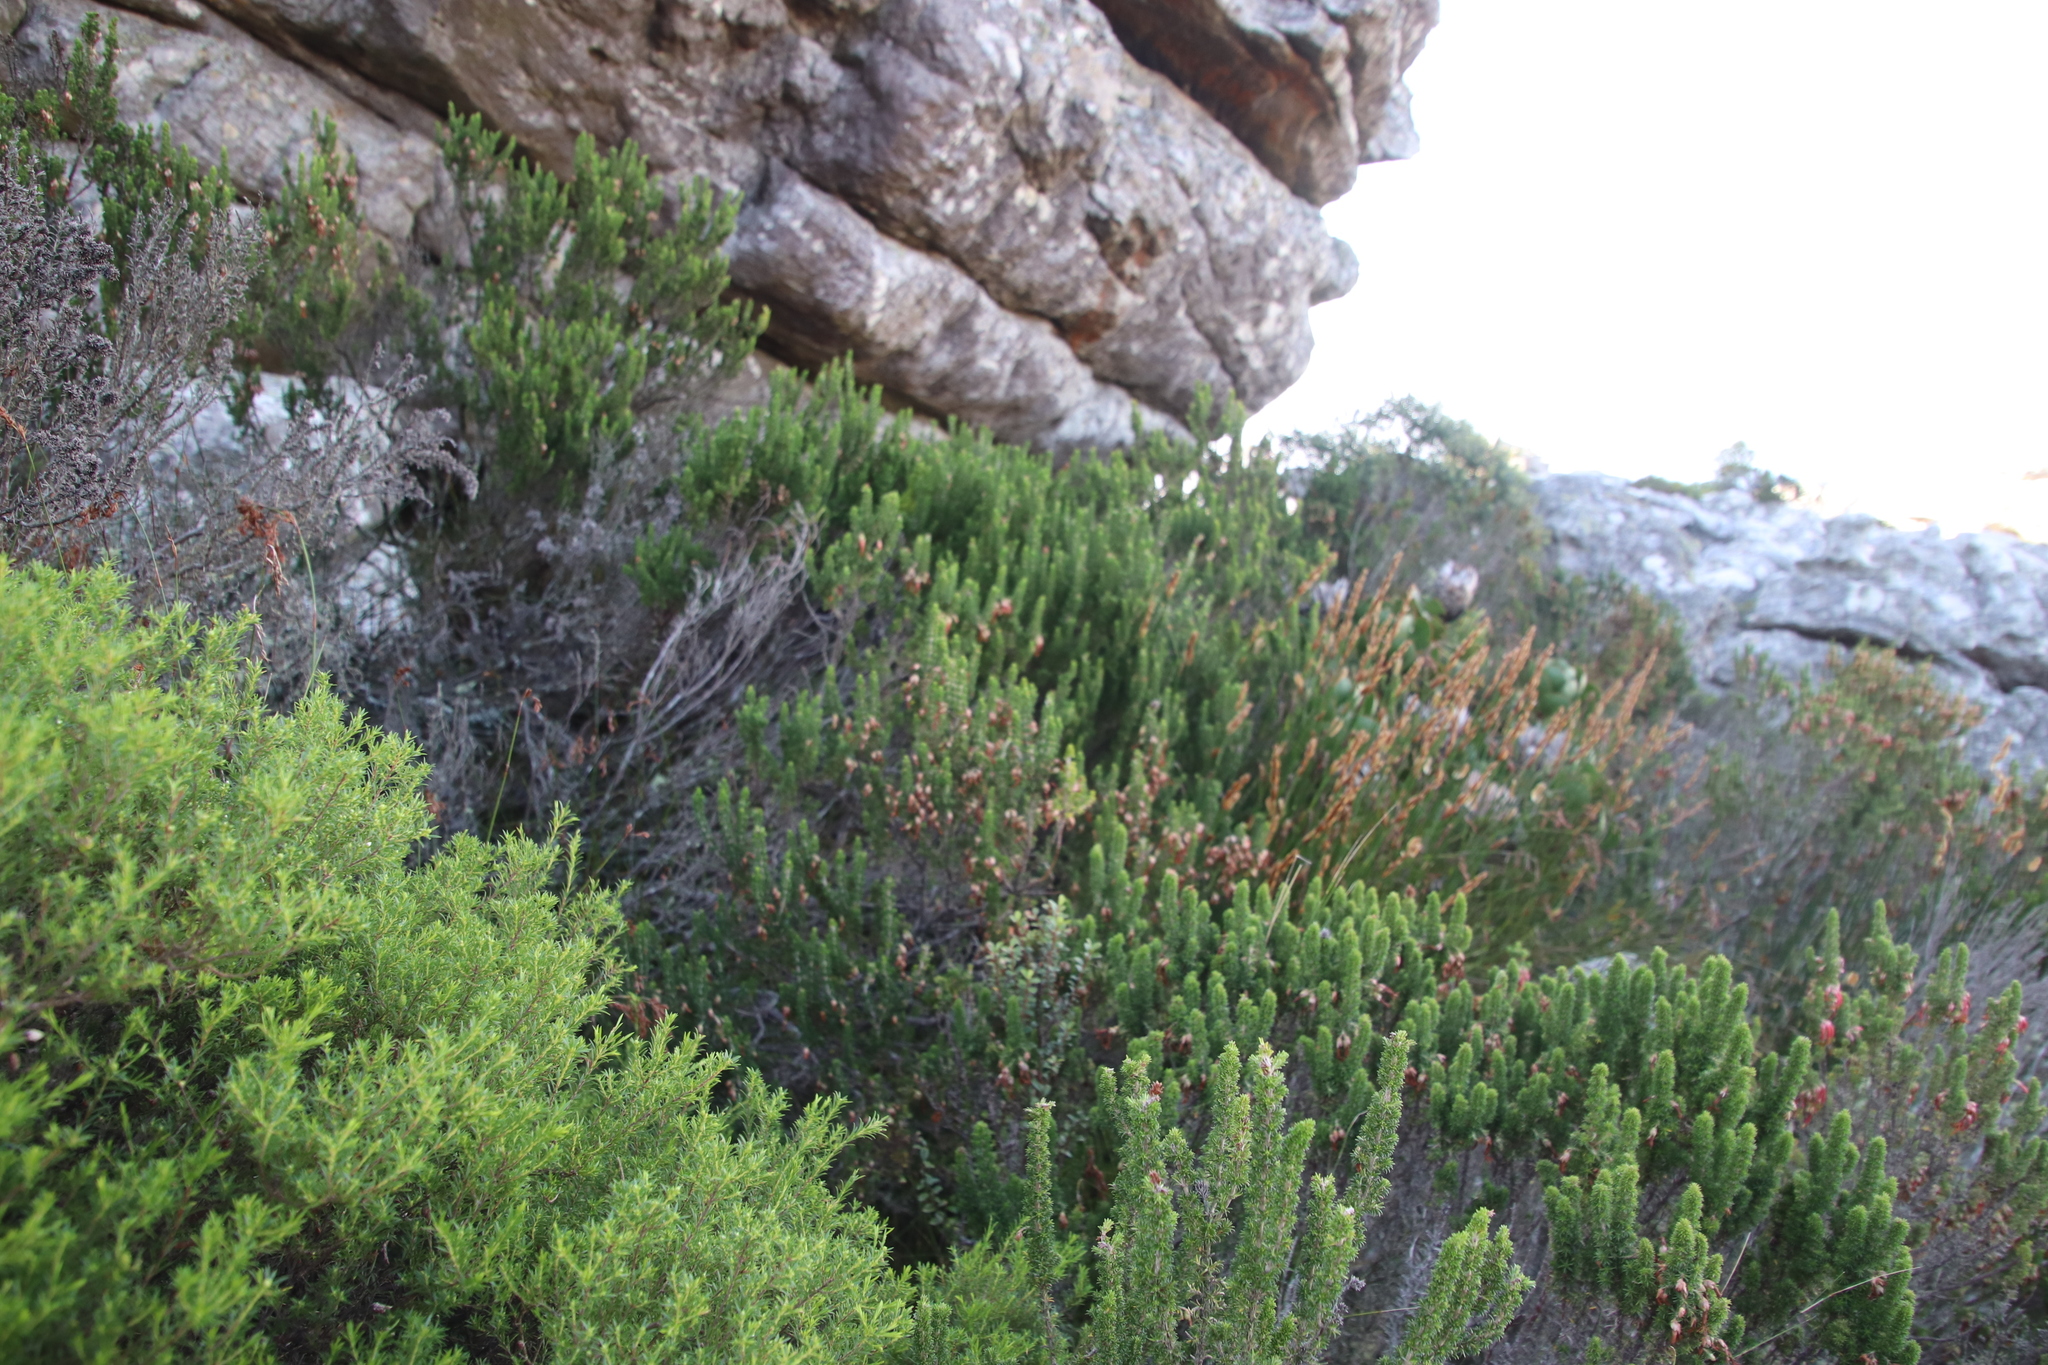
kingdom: Plantae
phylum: Tracheophyta
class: Magnoliopsida
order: Ericales
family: Ericaceae
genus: Erica
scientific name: Erica coccinea
